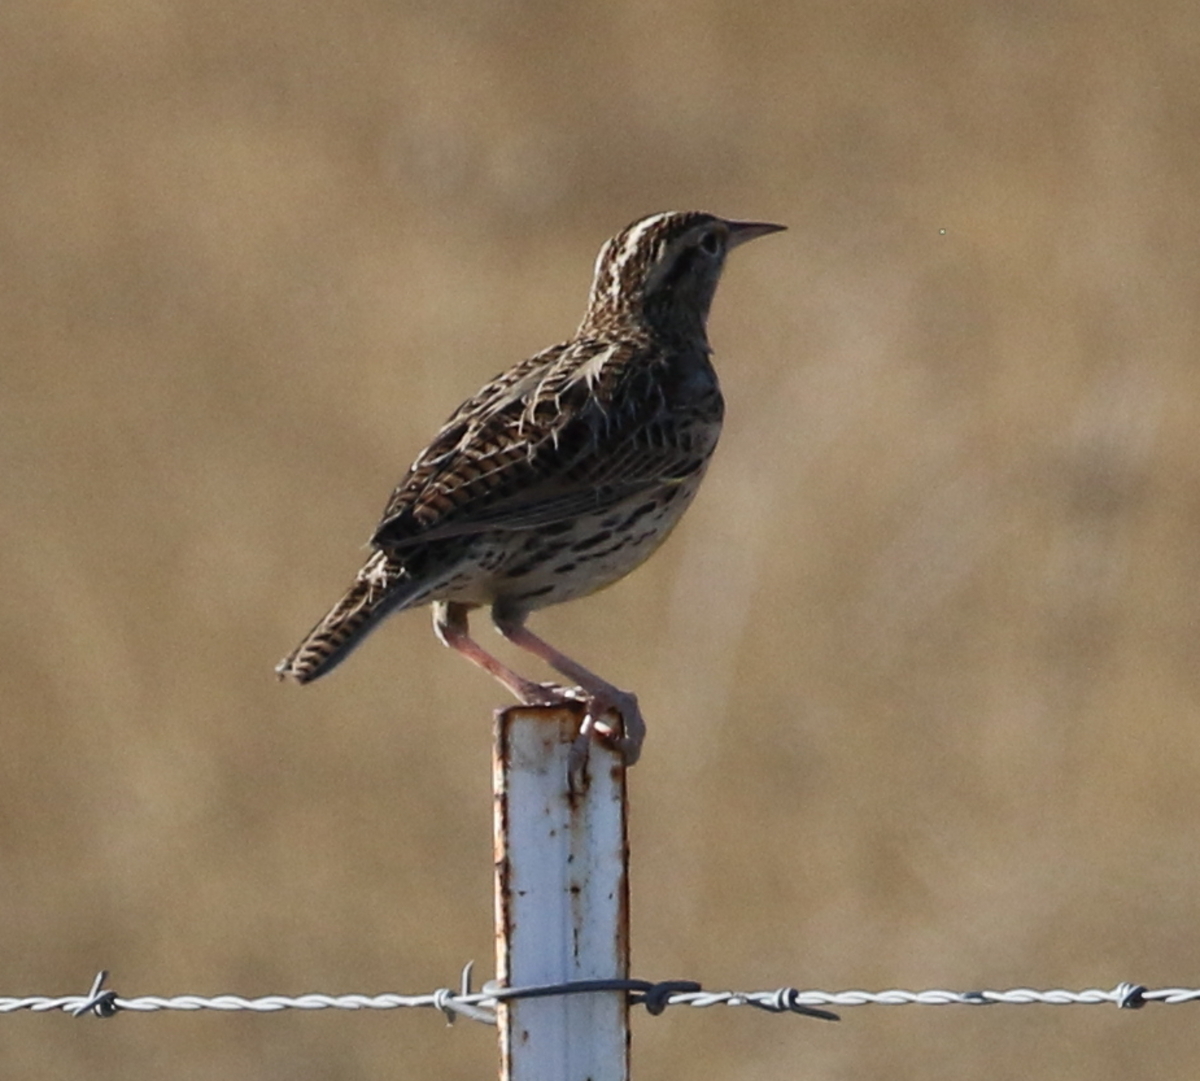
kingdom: Animalia
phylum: Chordata
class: Aves
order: Passeriformes
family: Icteridae
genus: Sturnella
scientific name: Sturnella neglecta
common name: Western meadowlark
